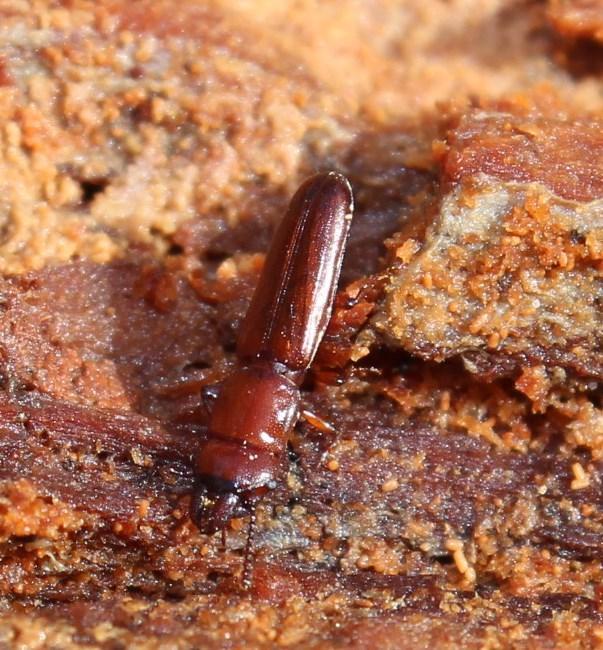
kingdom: Animalia
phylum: Arthropoda
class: Insecta
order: Coleoptera
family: Prostomidae
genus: Prostomis
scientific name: Prostomis
